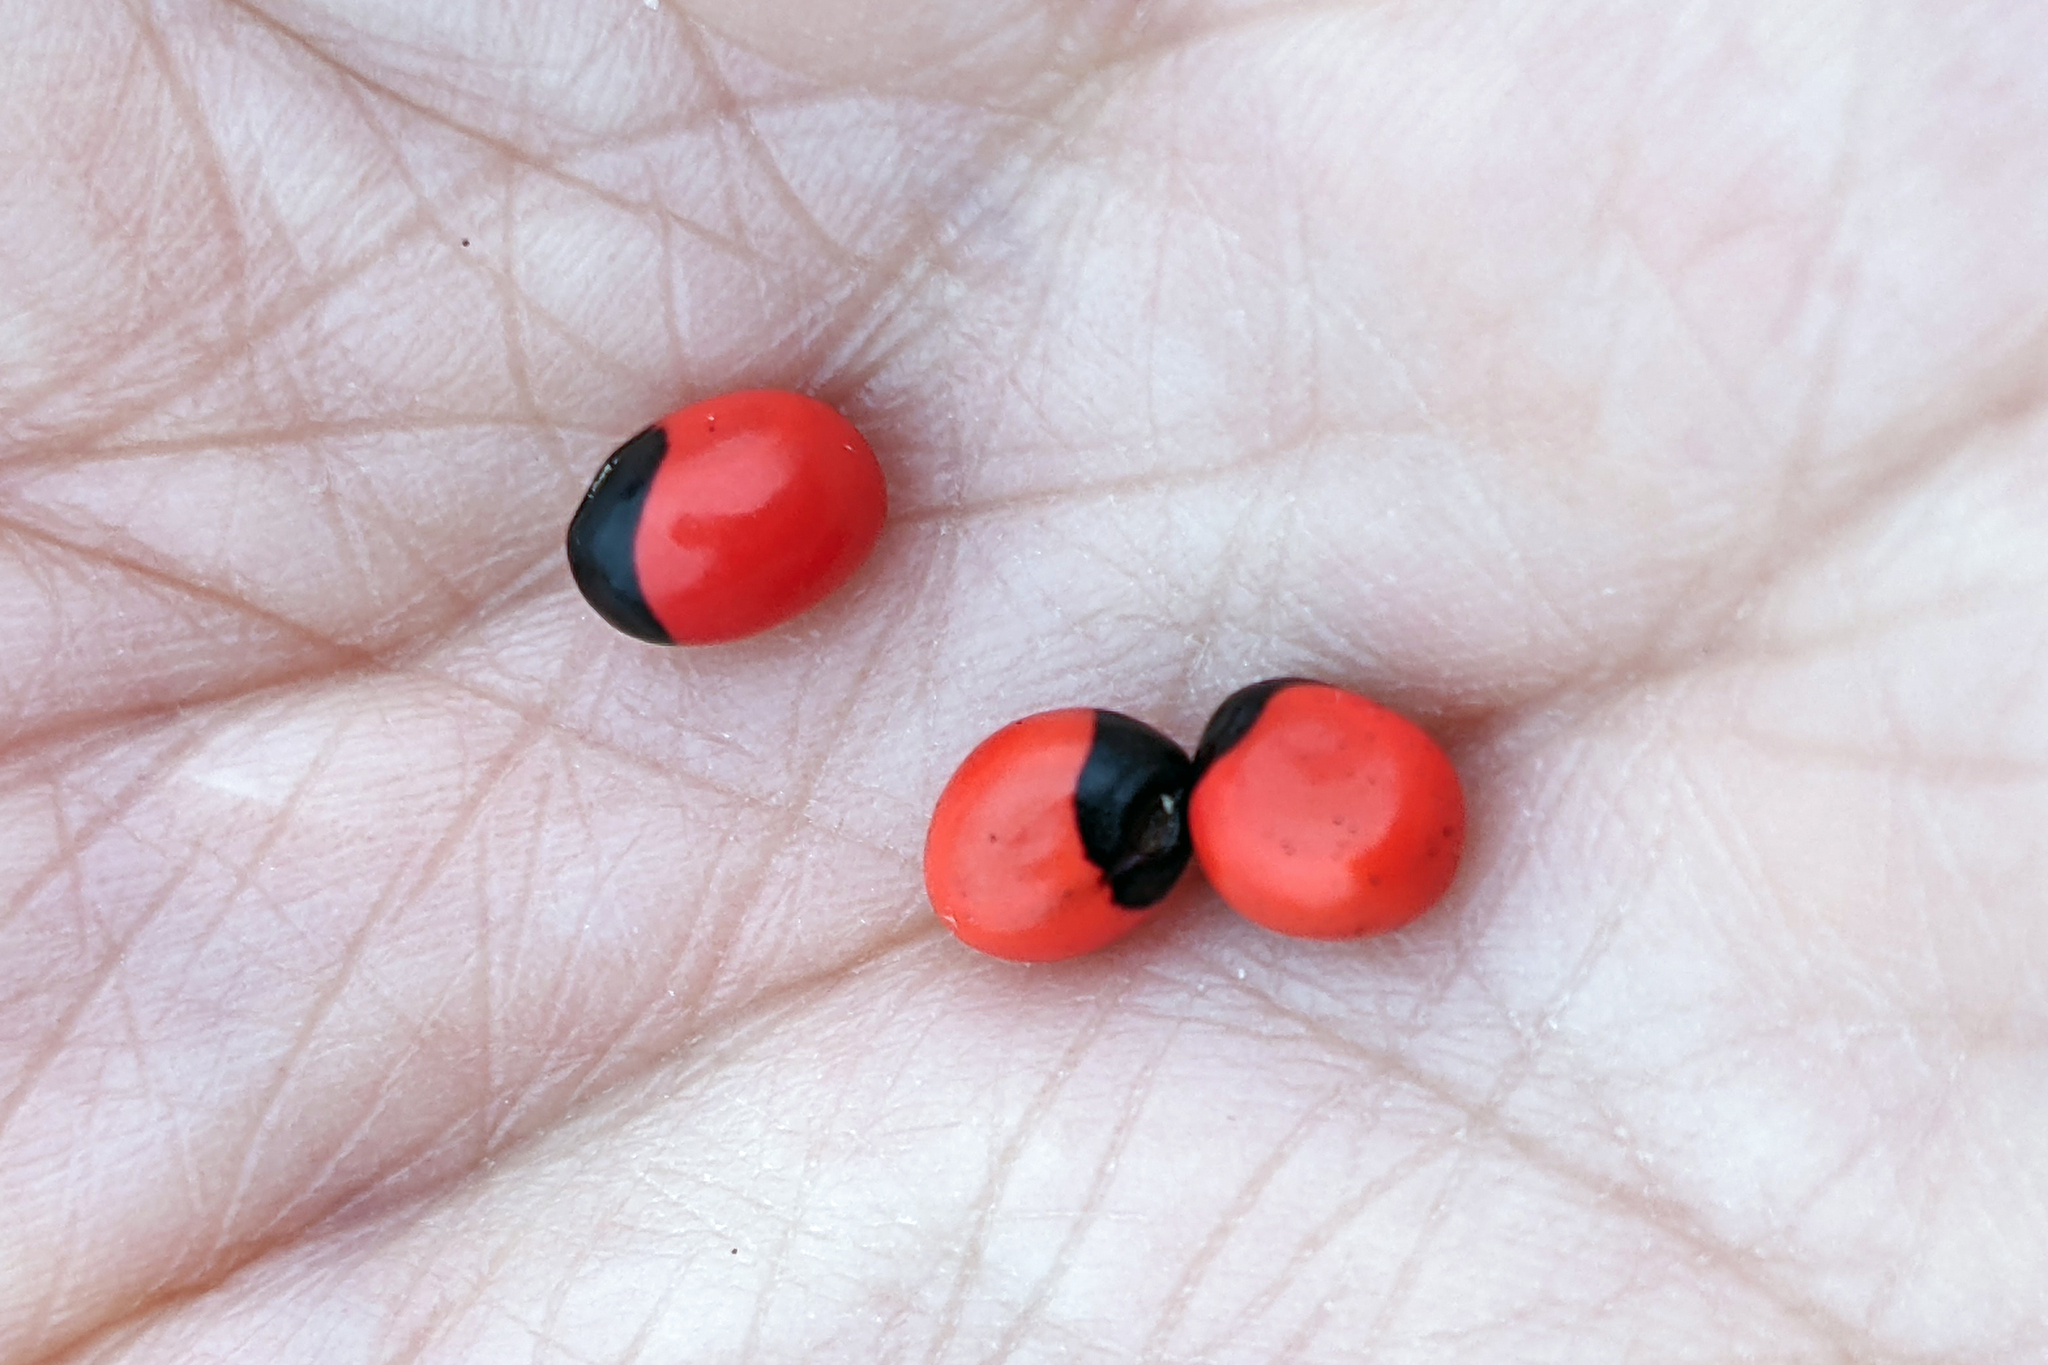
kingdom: Plantae
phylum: Tracheophyta
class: Magnoliopsida
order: Fabales
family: Fabaceae
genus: Abrus
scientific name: Abrus precatorius
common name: Rosarypea
